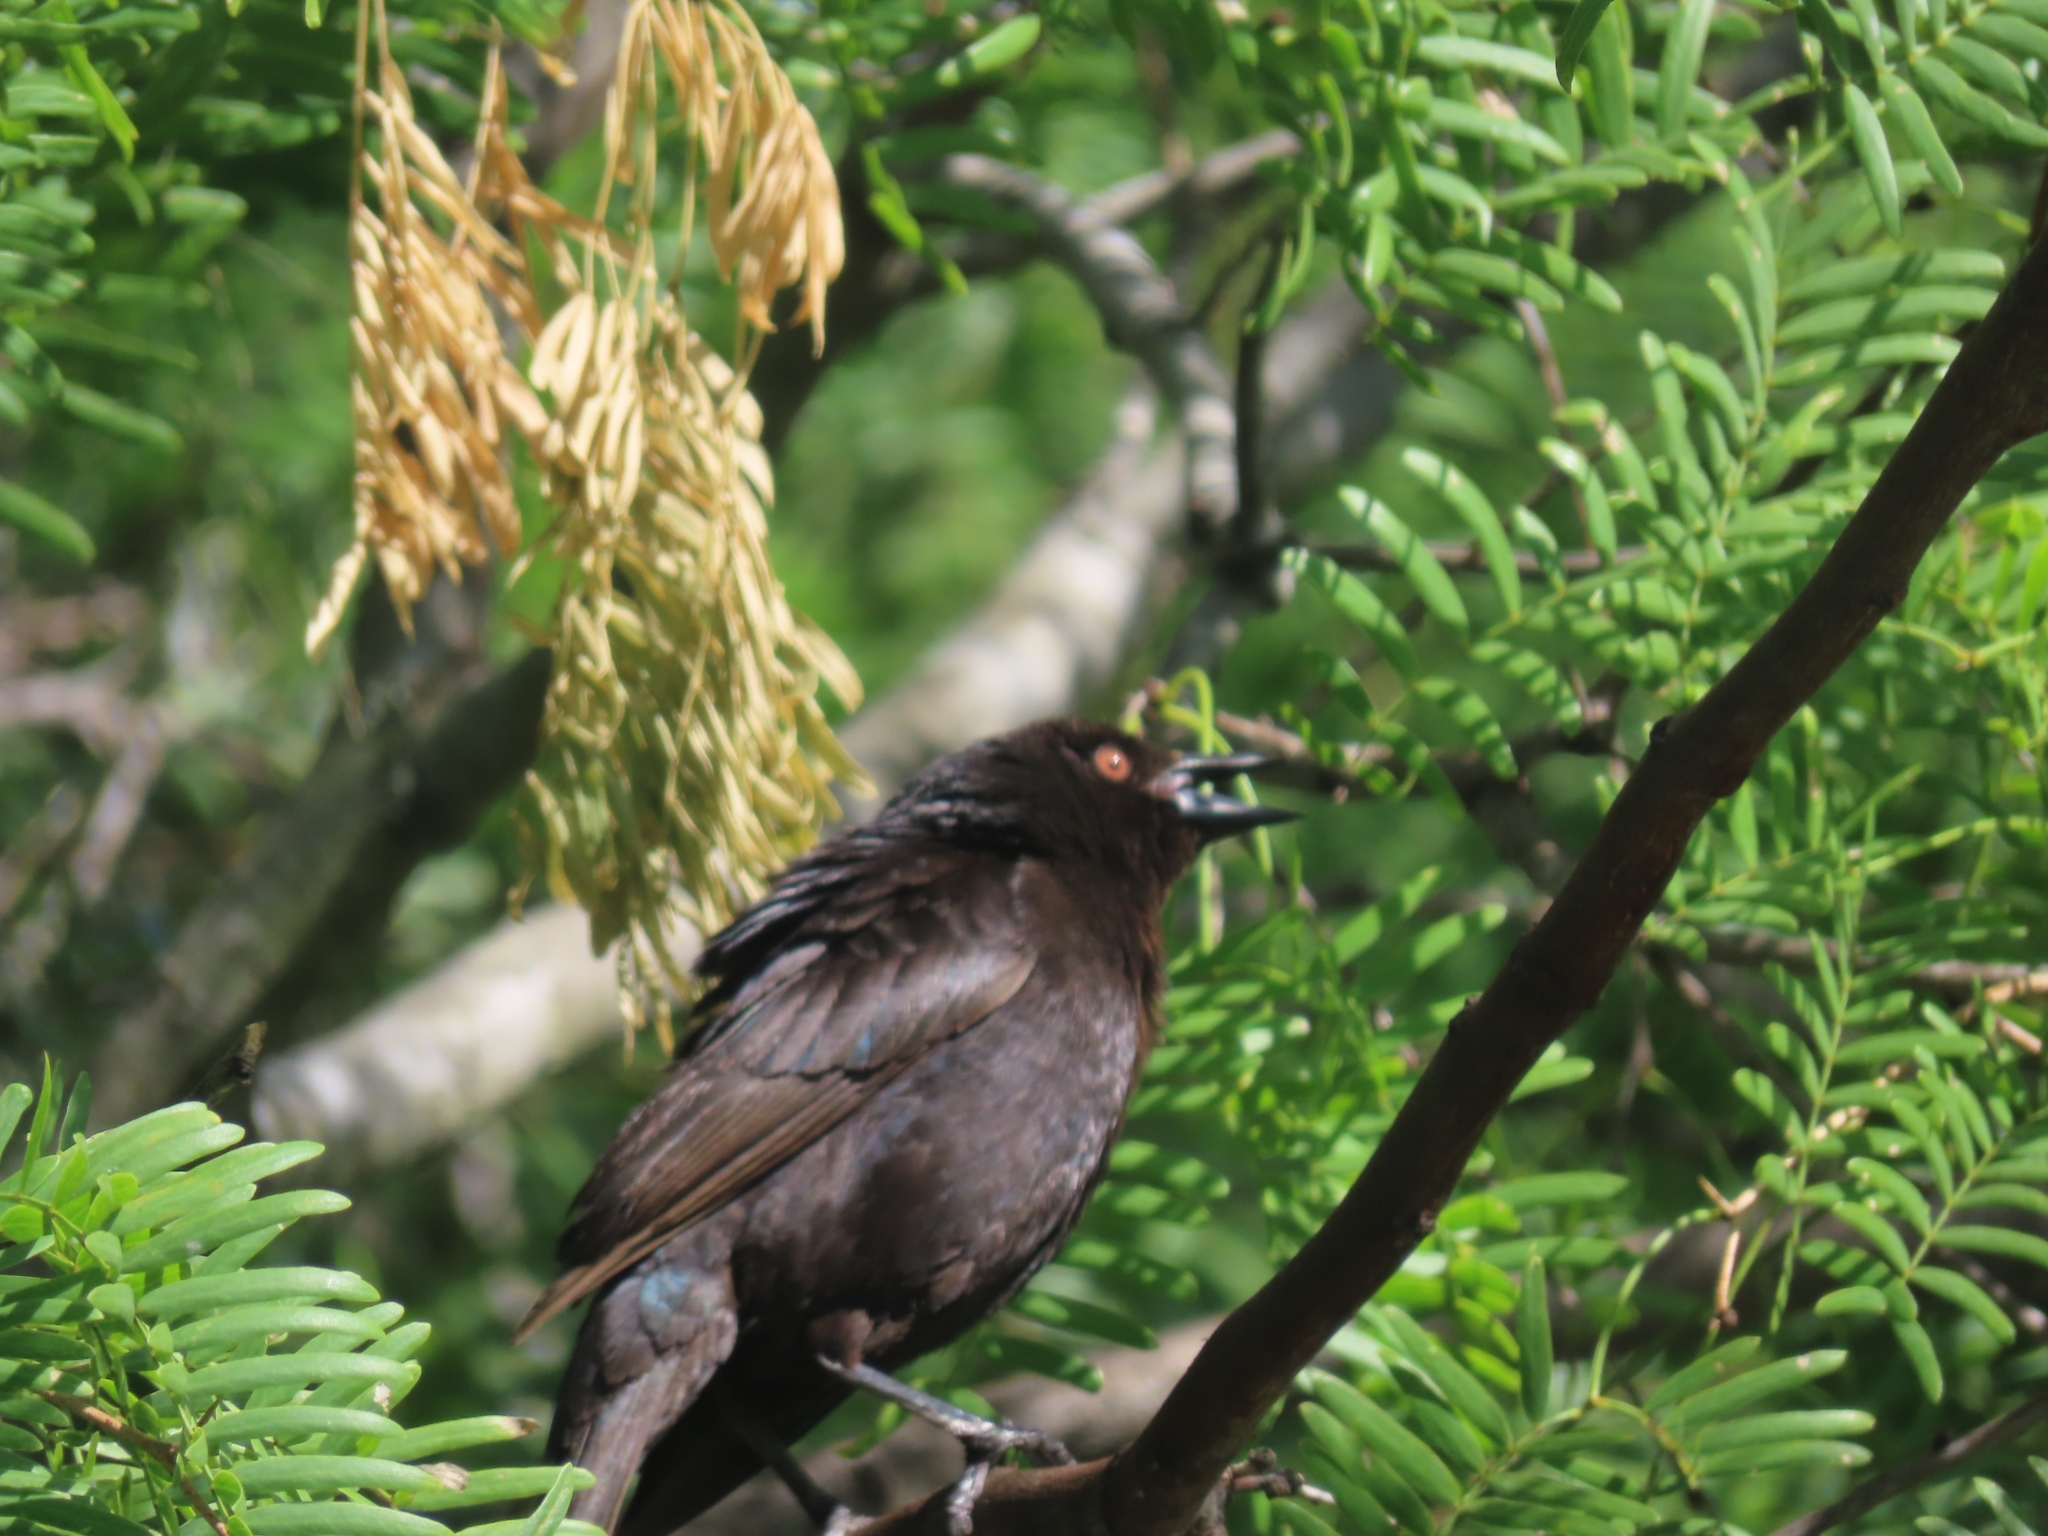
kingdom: Animalia
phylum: Chordata
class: Aves
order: Passeriformes
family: Icteridae
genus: Molothrus
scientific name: Molothrus aeneus
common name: Bronzed cowbird
